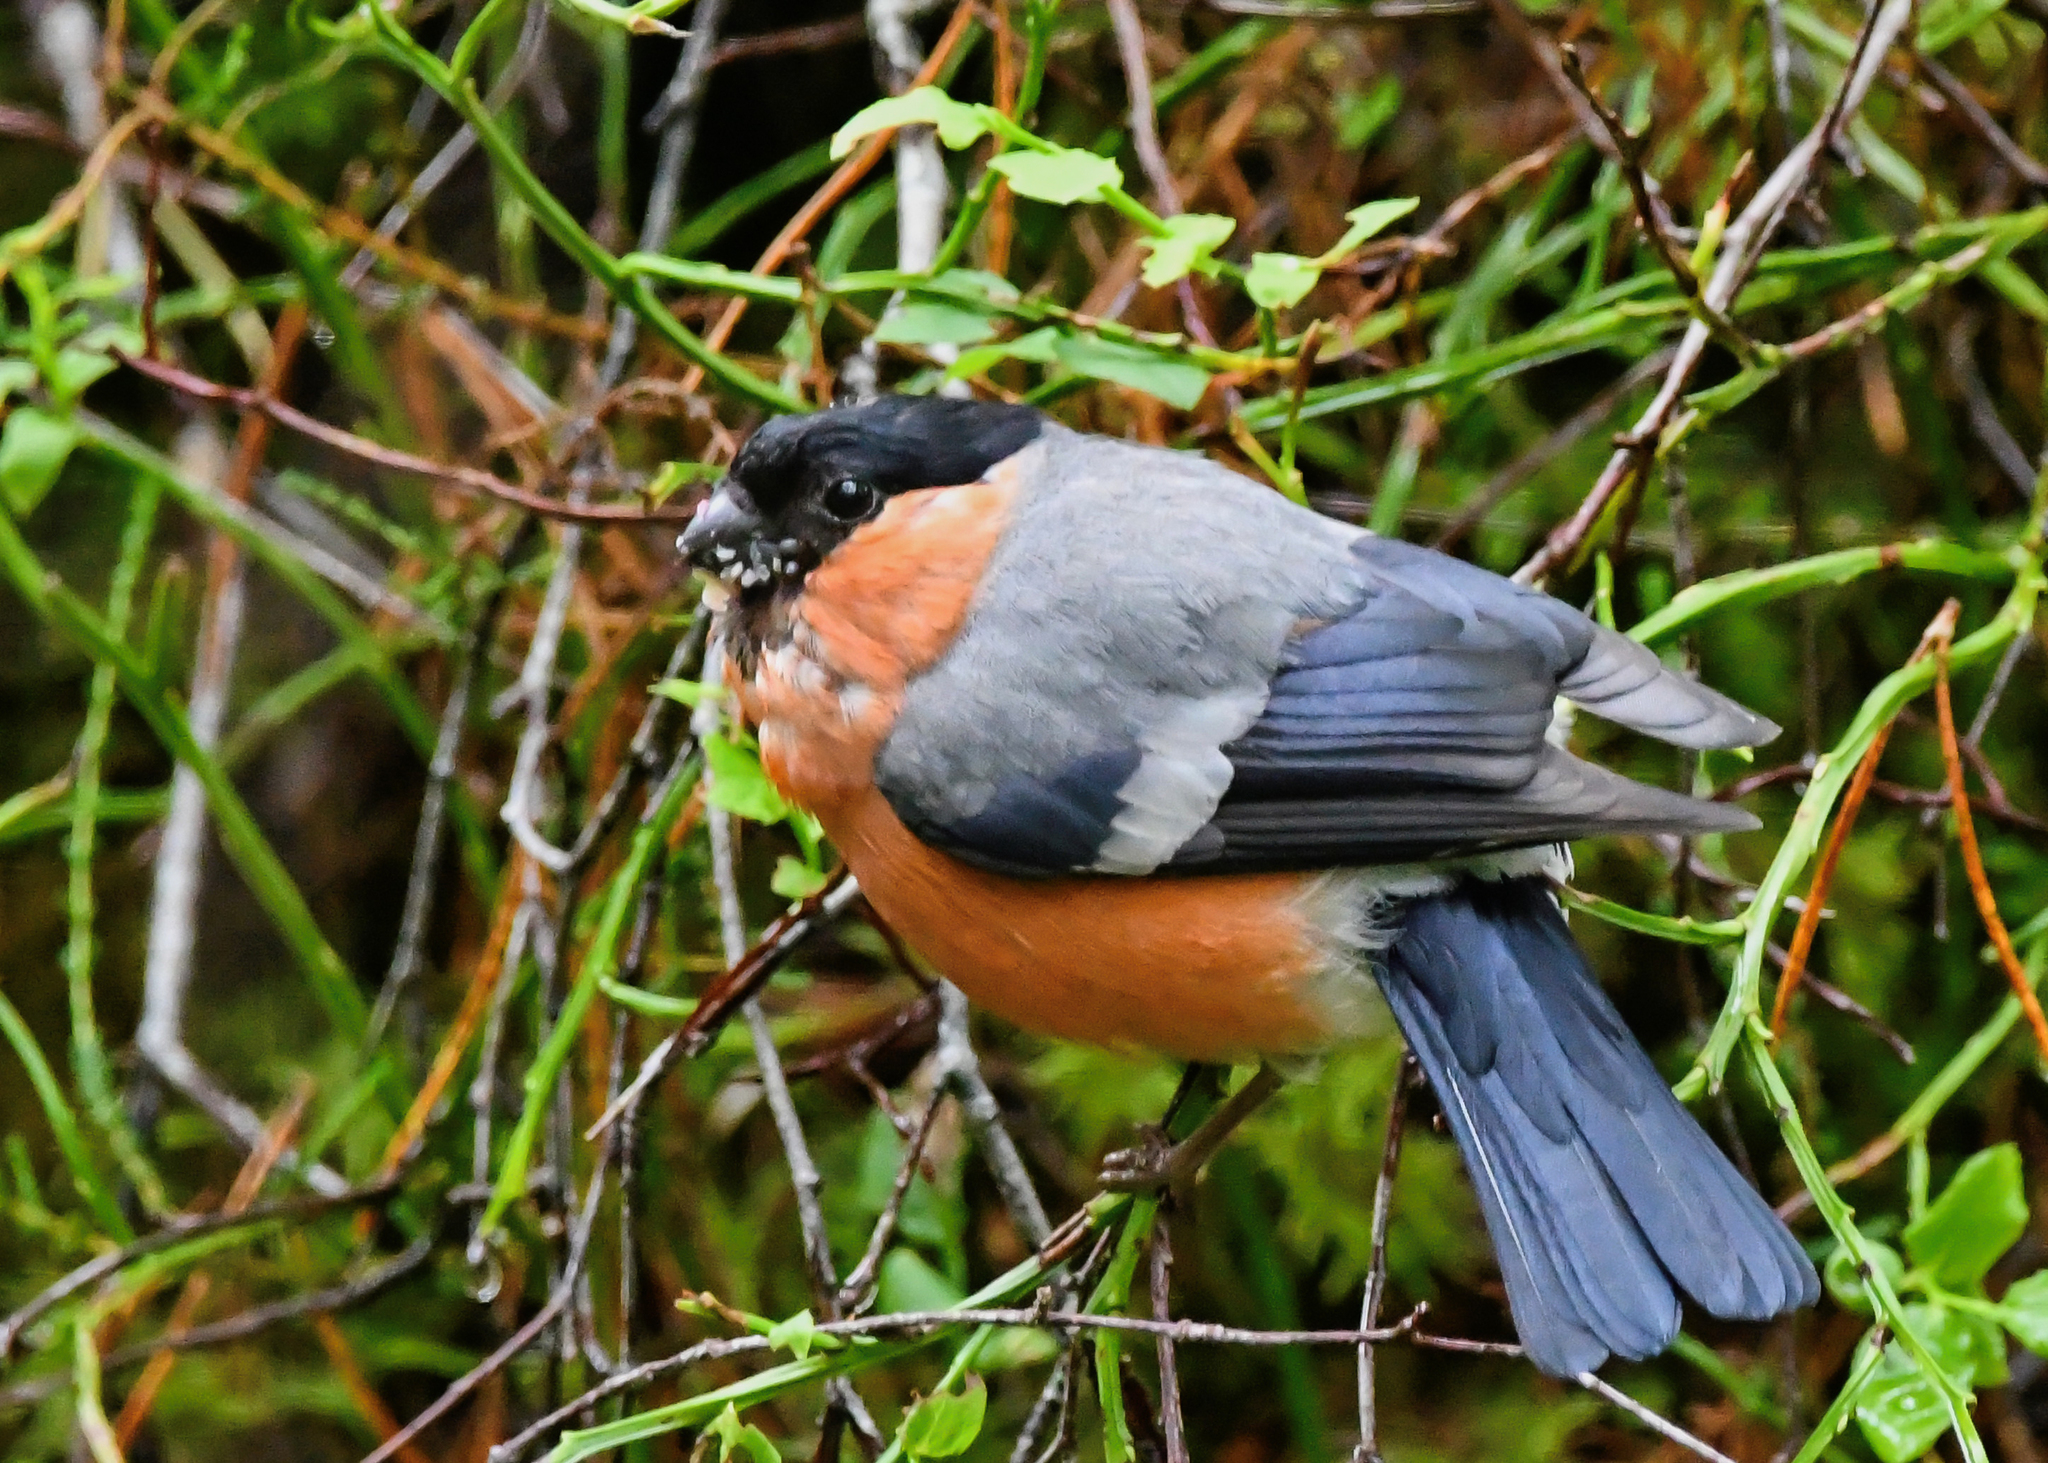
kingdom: Animalia
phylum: Chordata
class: Aves
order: Passeriformes
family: Fringillidae
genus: Pyrrhula
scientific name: Pyrrhula pyrrhula
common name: Eurasian bullfinch
